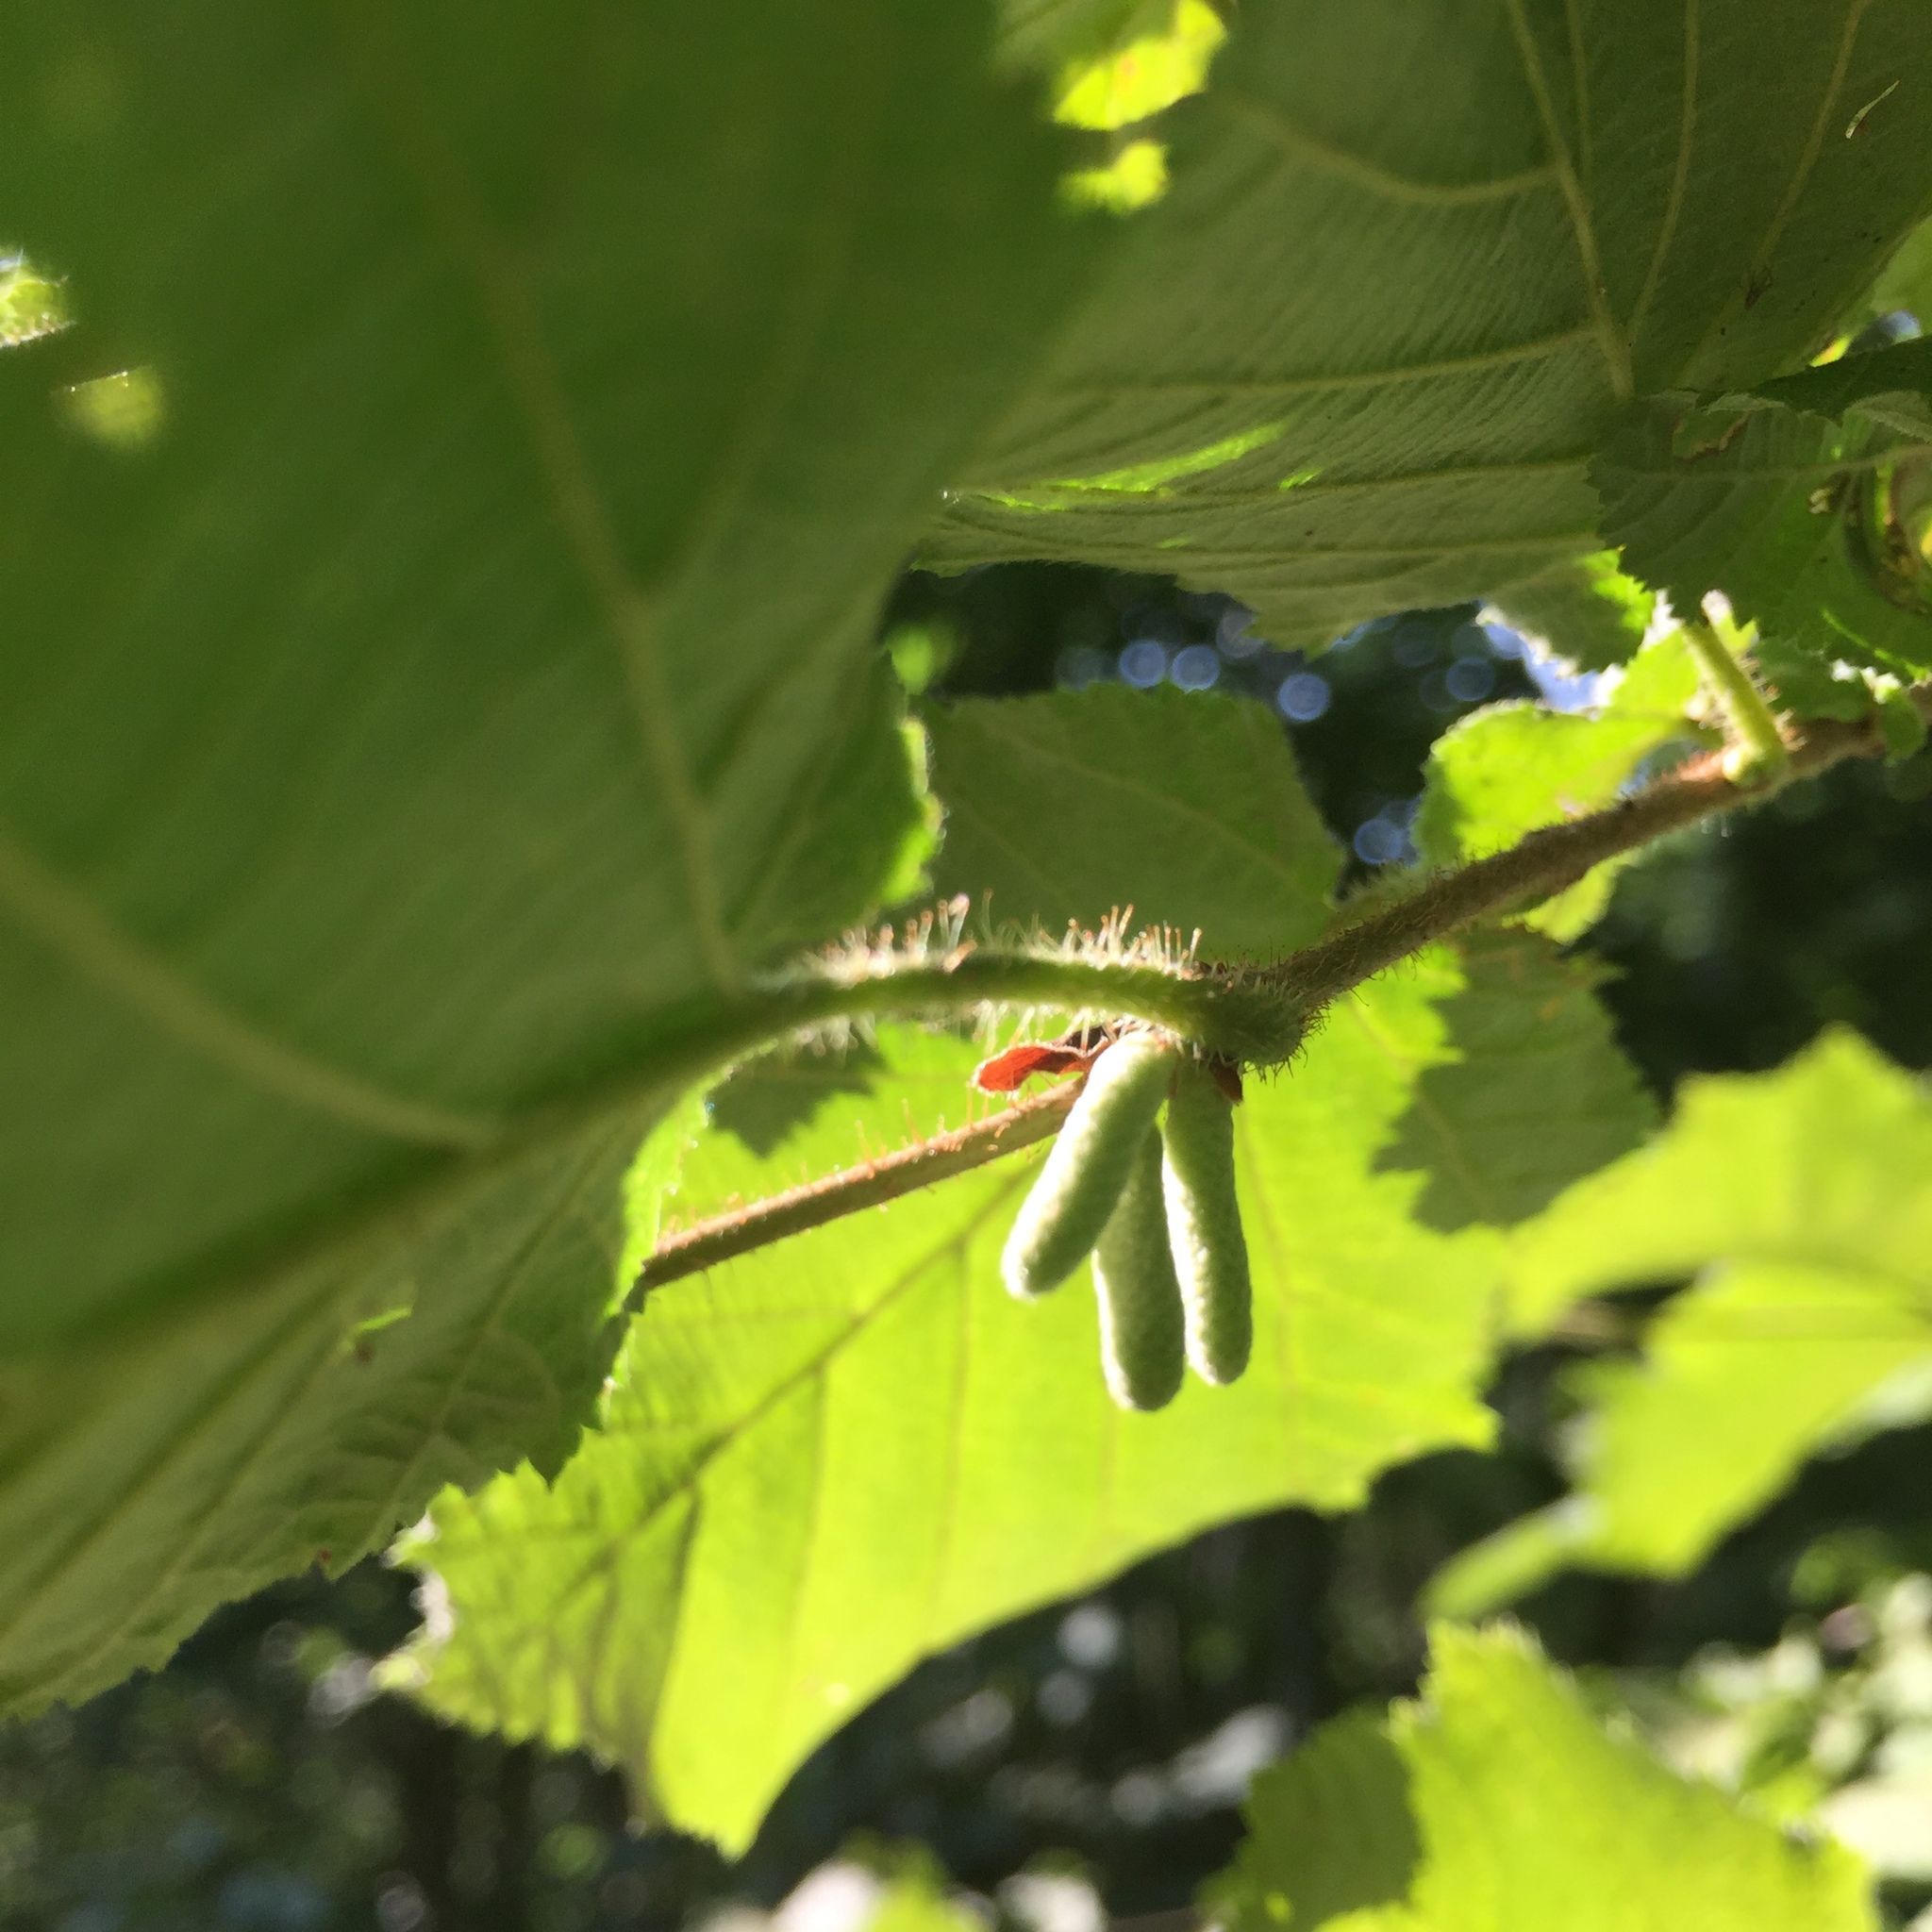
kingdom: Plantae
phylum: Tracheophyta
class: Magnoliopsida
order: Fagales
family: Betulaceae
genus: Corylus
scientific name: Corylus avellana
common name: European hazel
